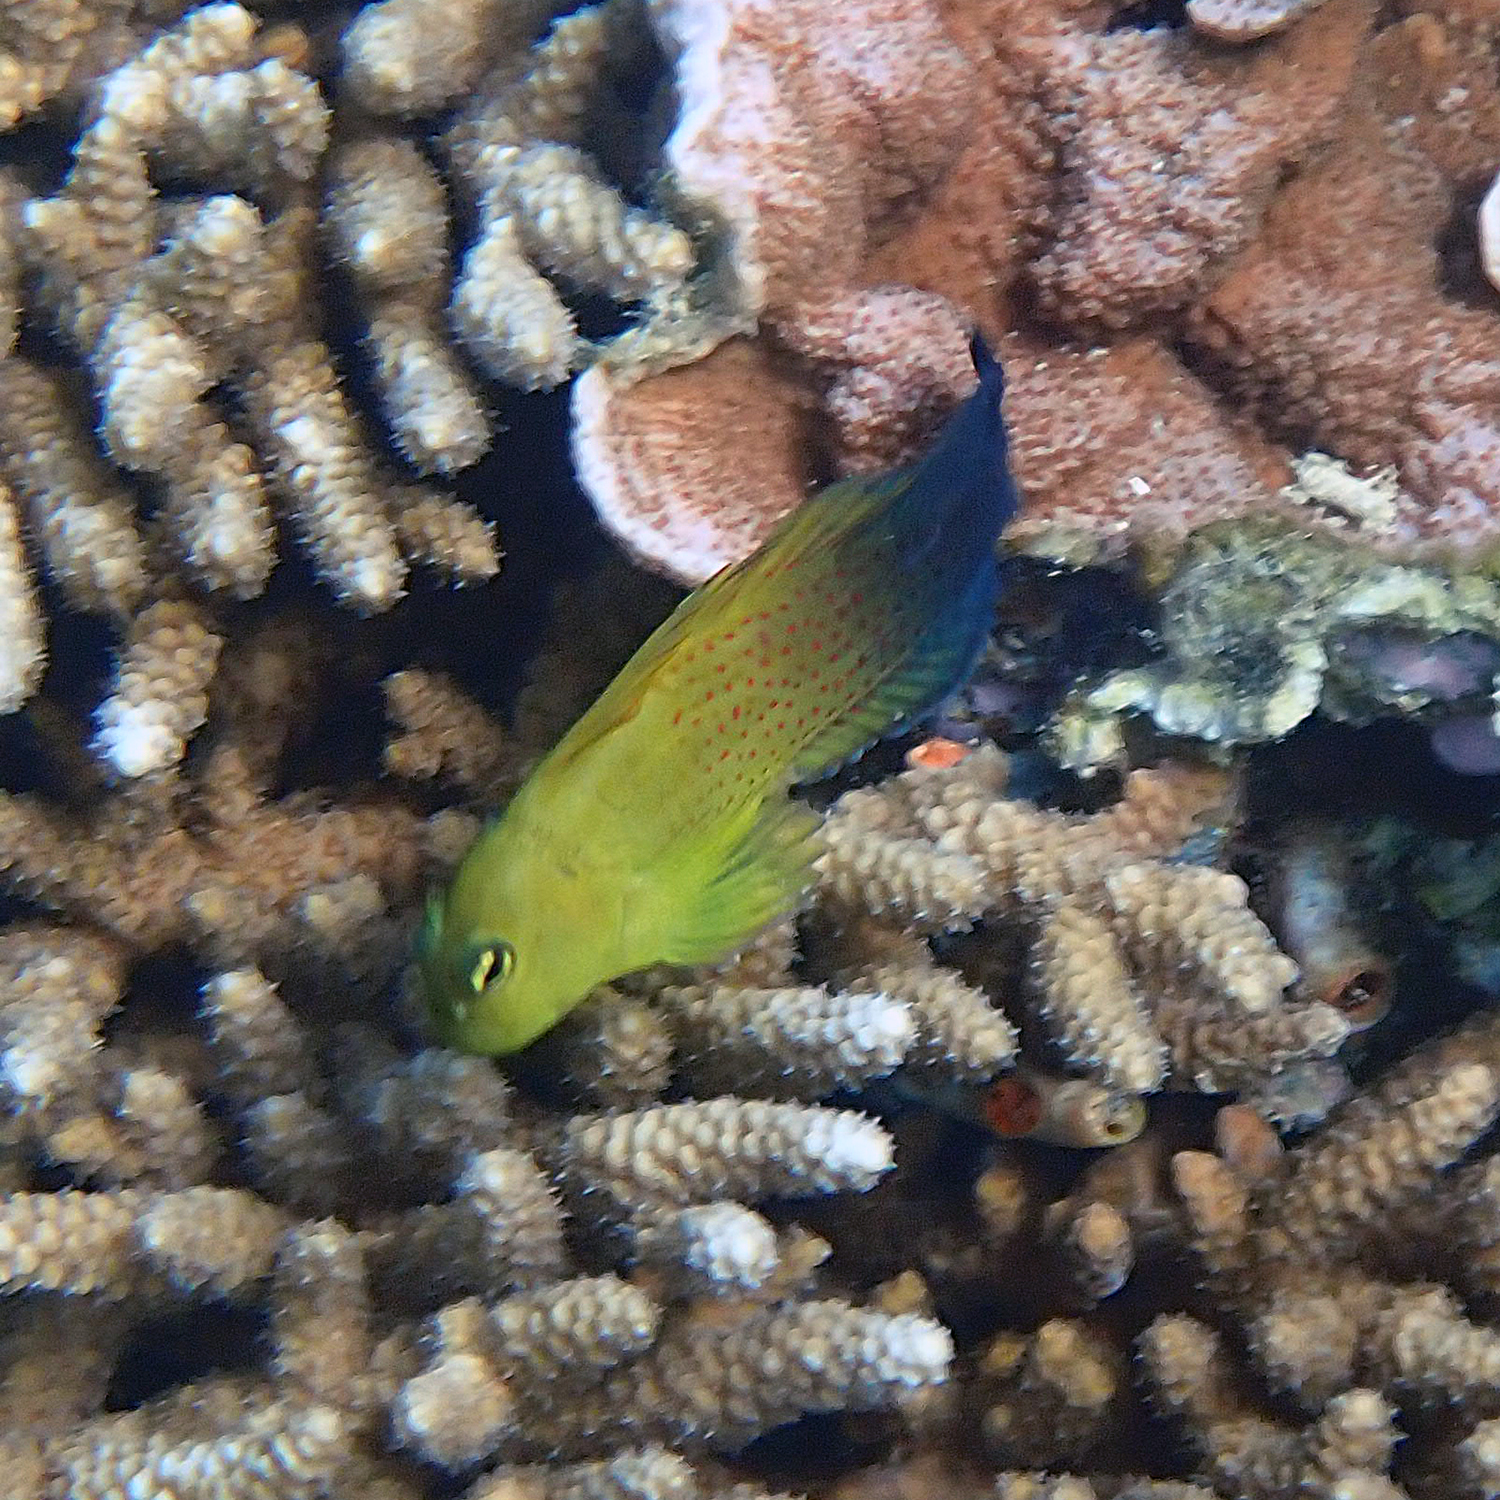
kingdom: Animalia
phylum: Chordata
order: Perciformes
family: Blenniidae
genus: Cirripectes
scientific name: Cirripectes chelomatus
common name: Lady musgrave blenny
